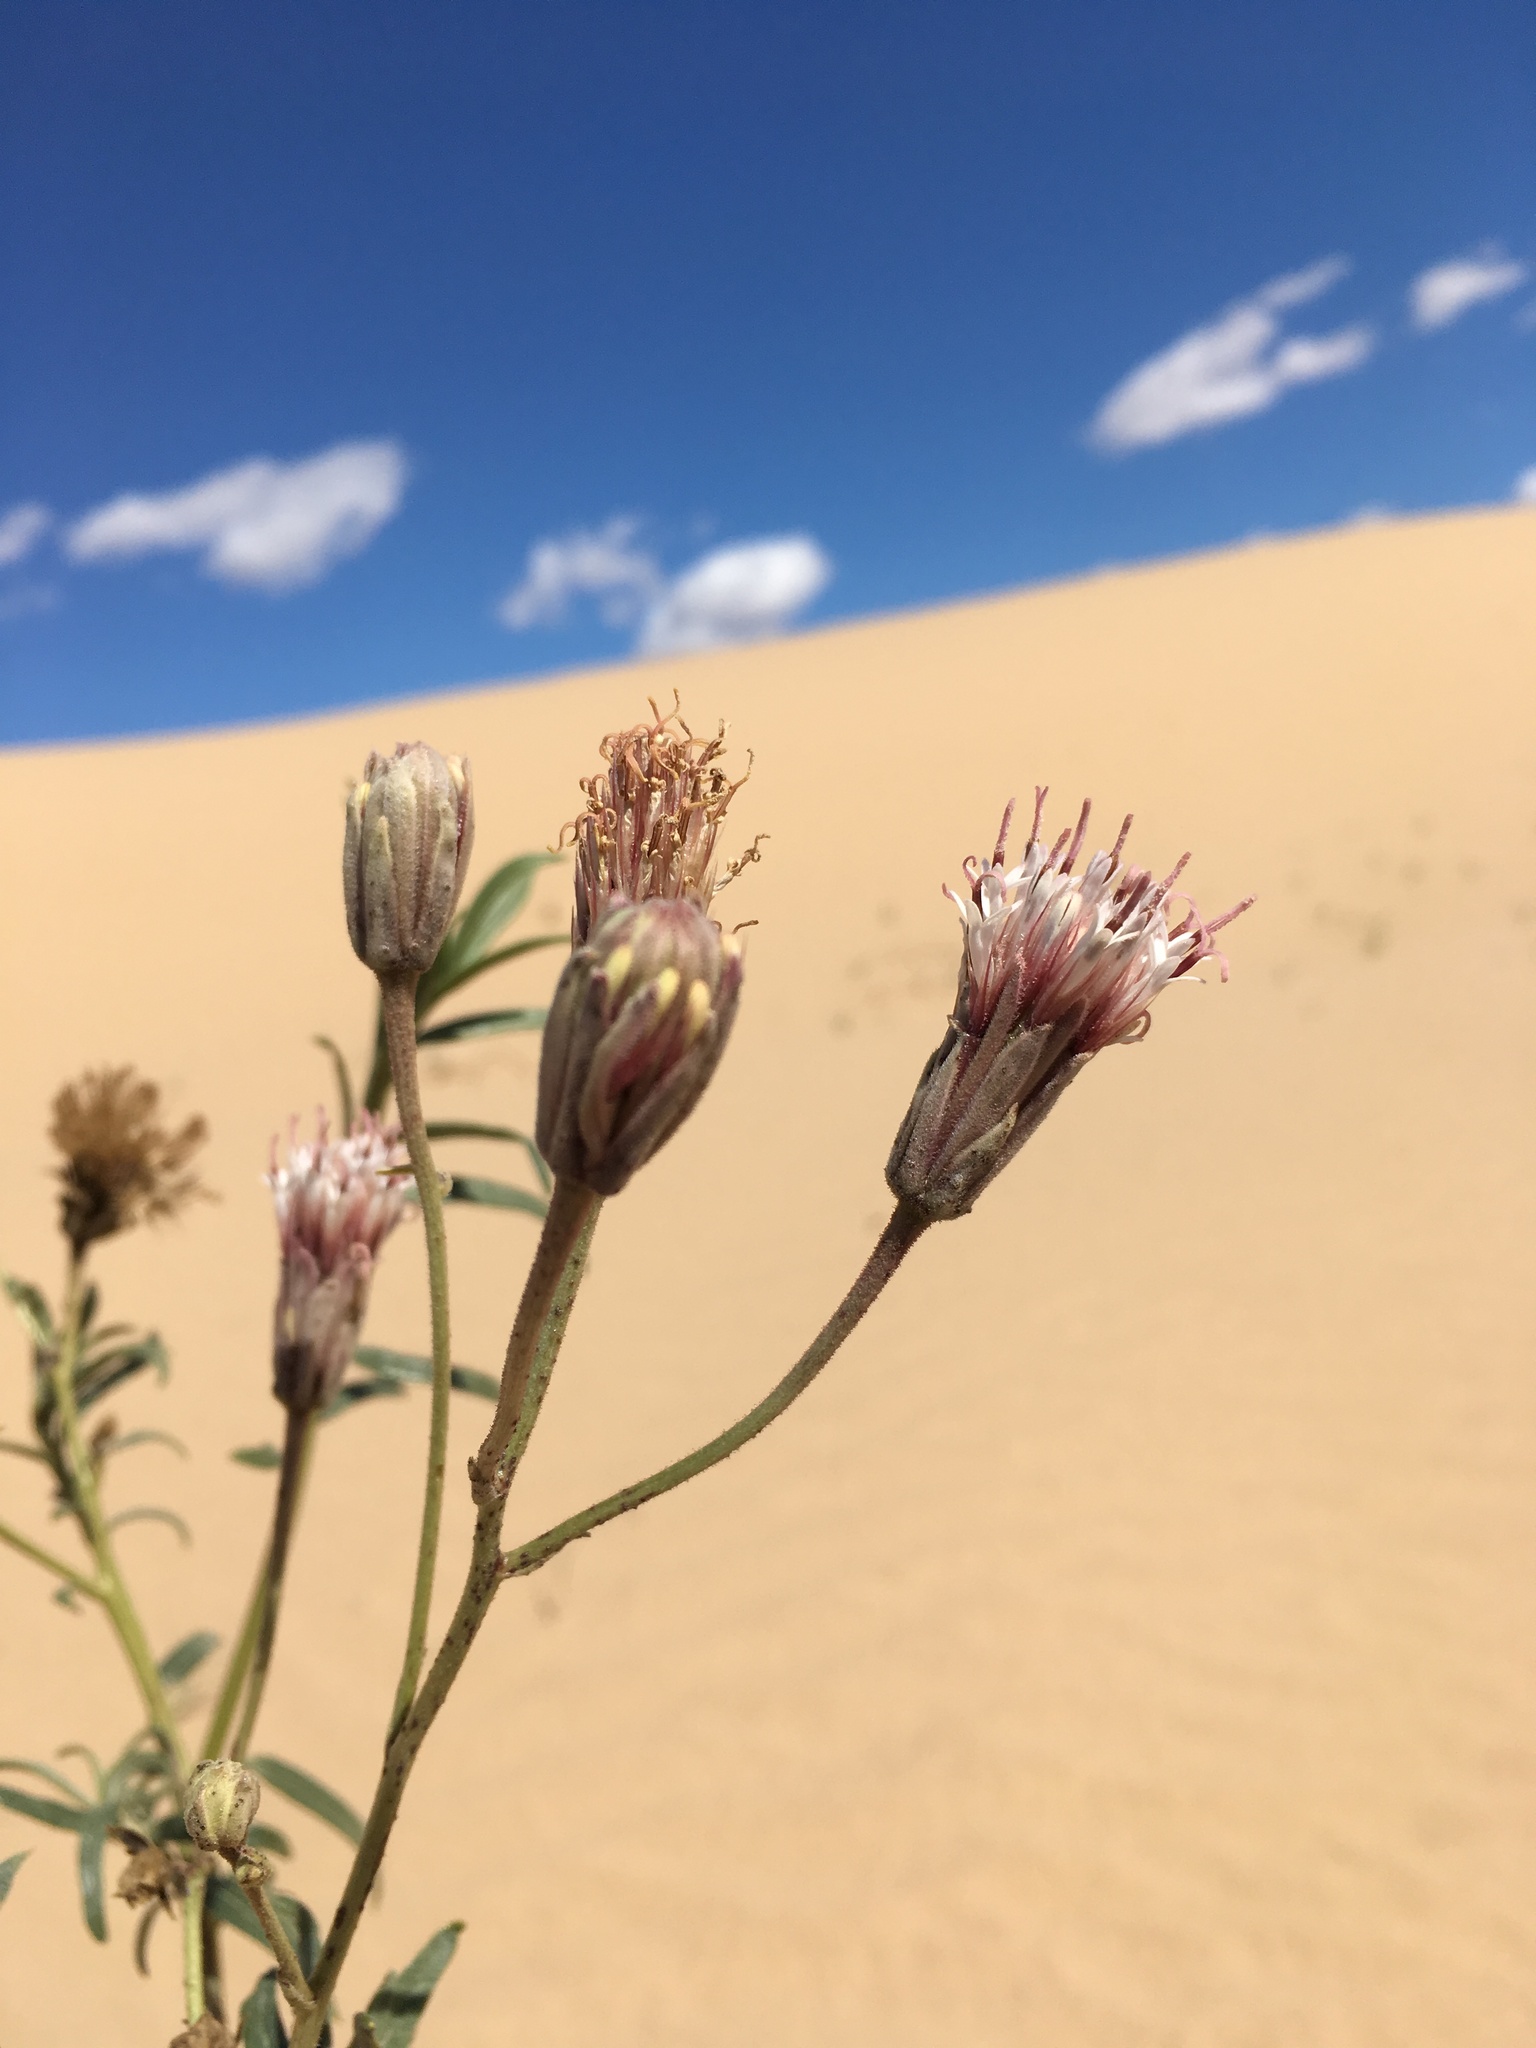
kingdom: Plantae
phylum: Tracheophyta
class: Magnoliopsida
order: Asterales
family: Asteraceae
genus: Palafoxia
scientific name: Palafoxia arida
